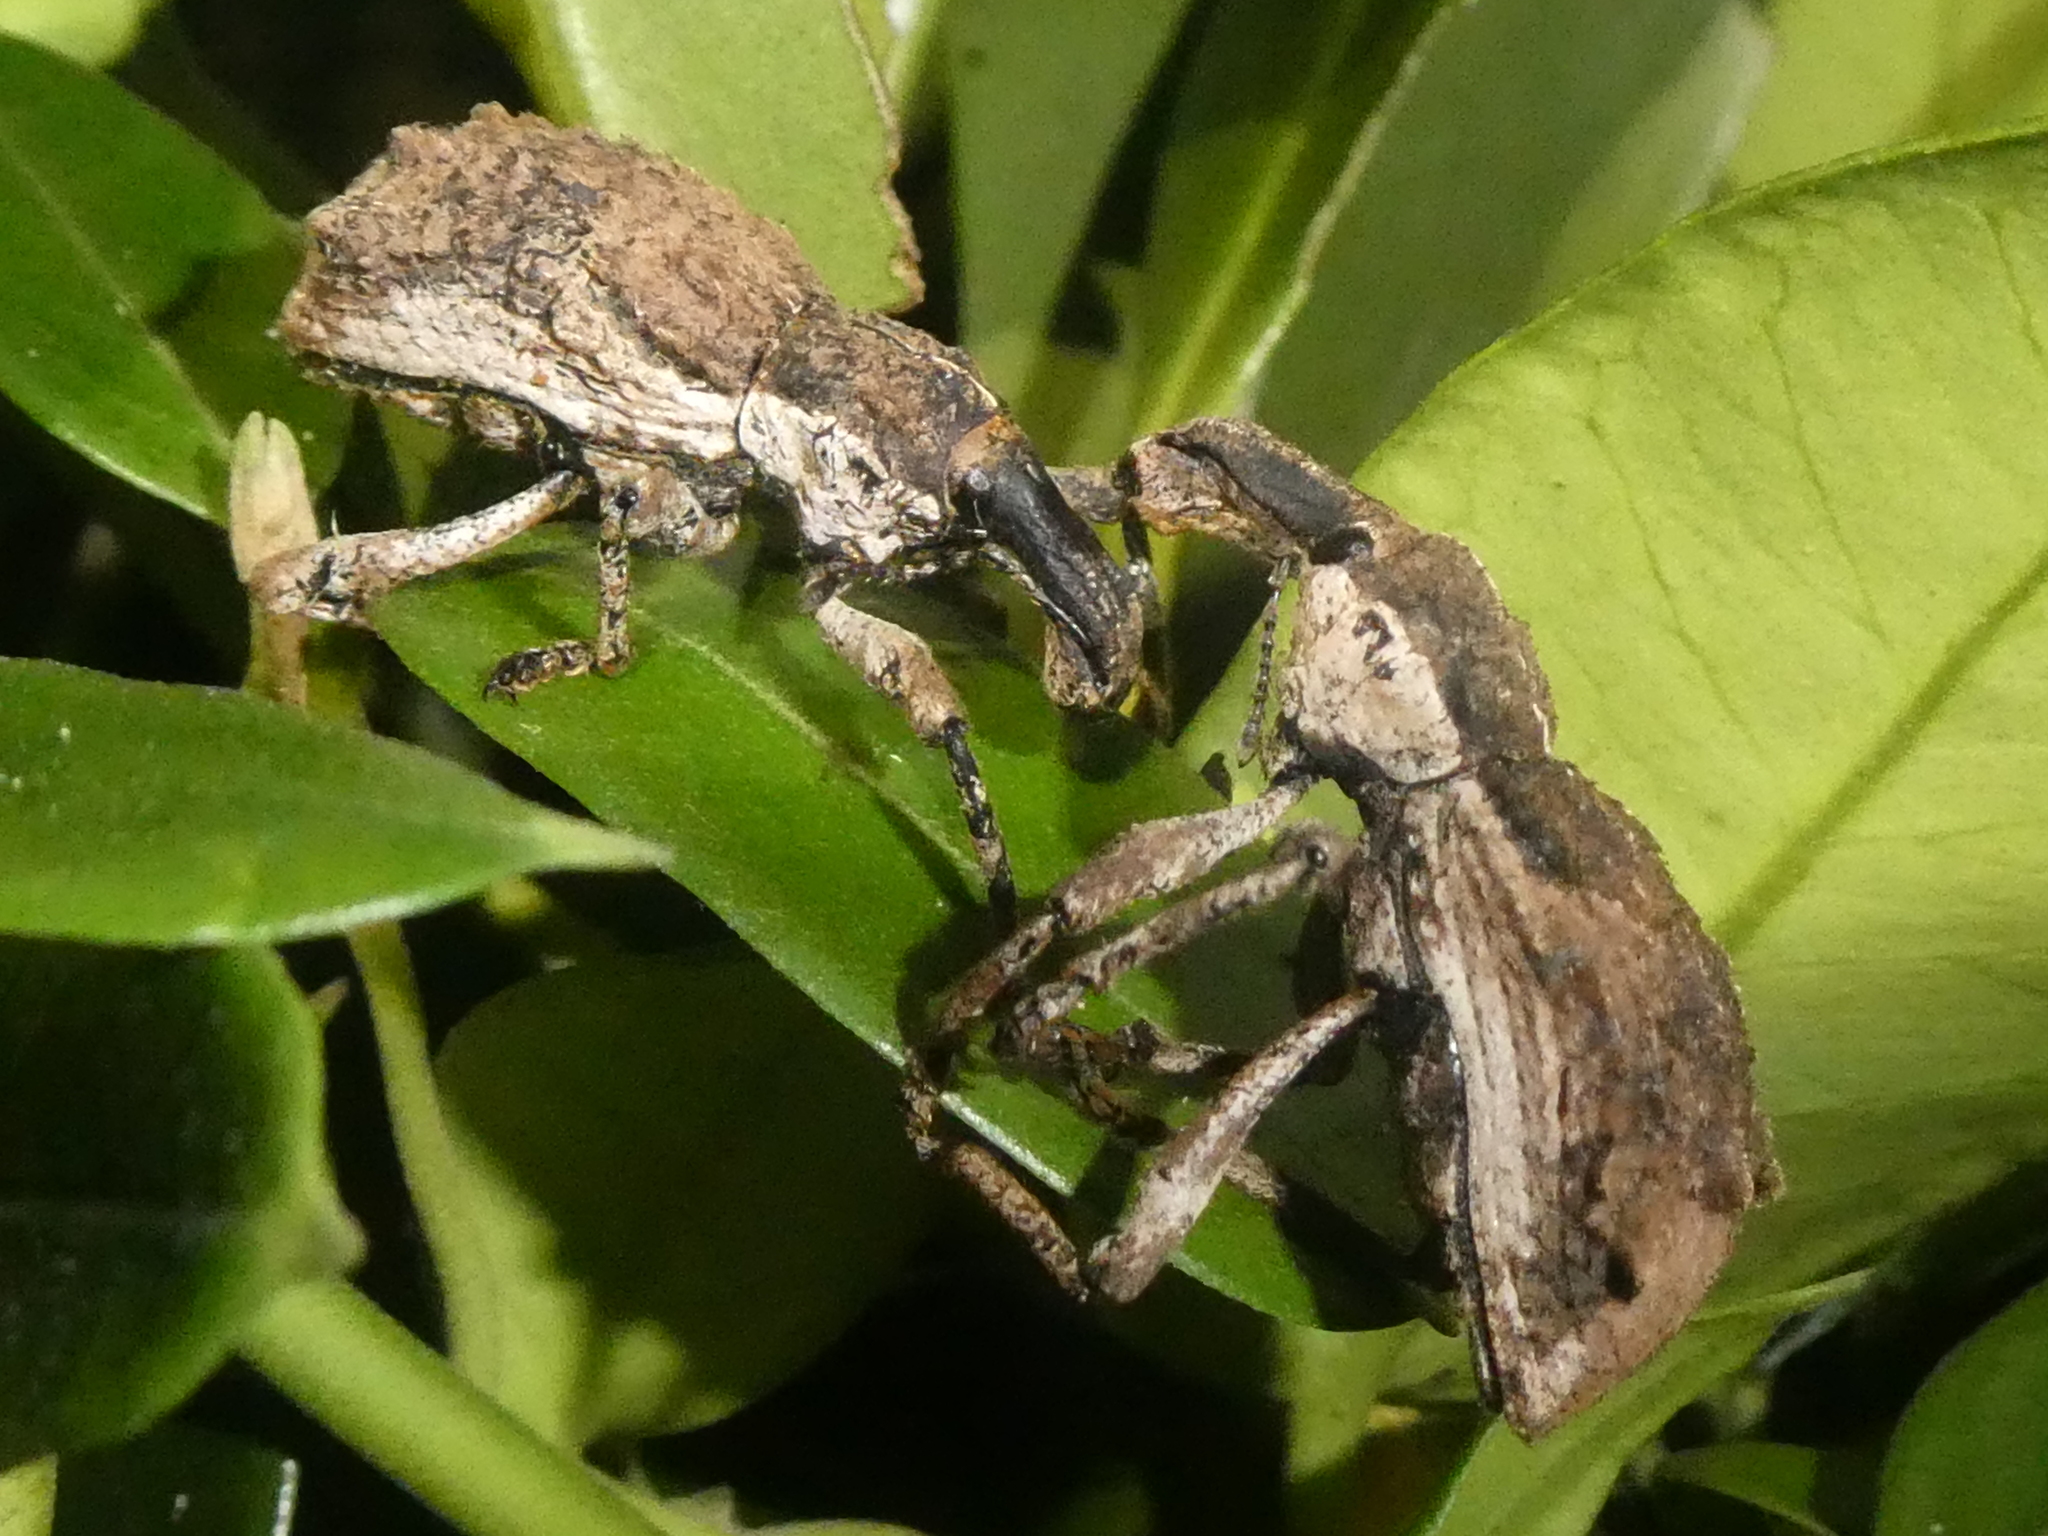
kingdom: Animalia
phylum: Arthropoda
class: Insecta
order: Coleoptera
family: Curculionidae
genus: Anagotus
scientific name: Anagotus stephenensis
